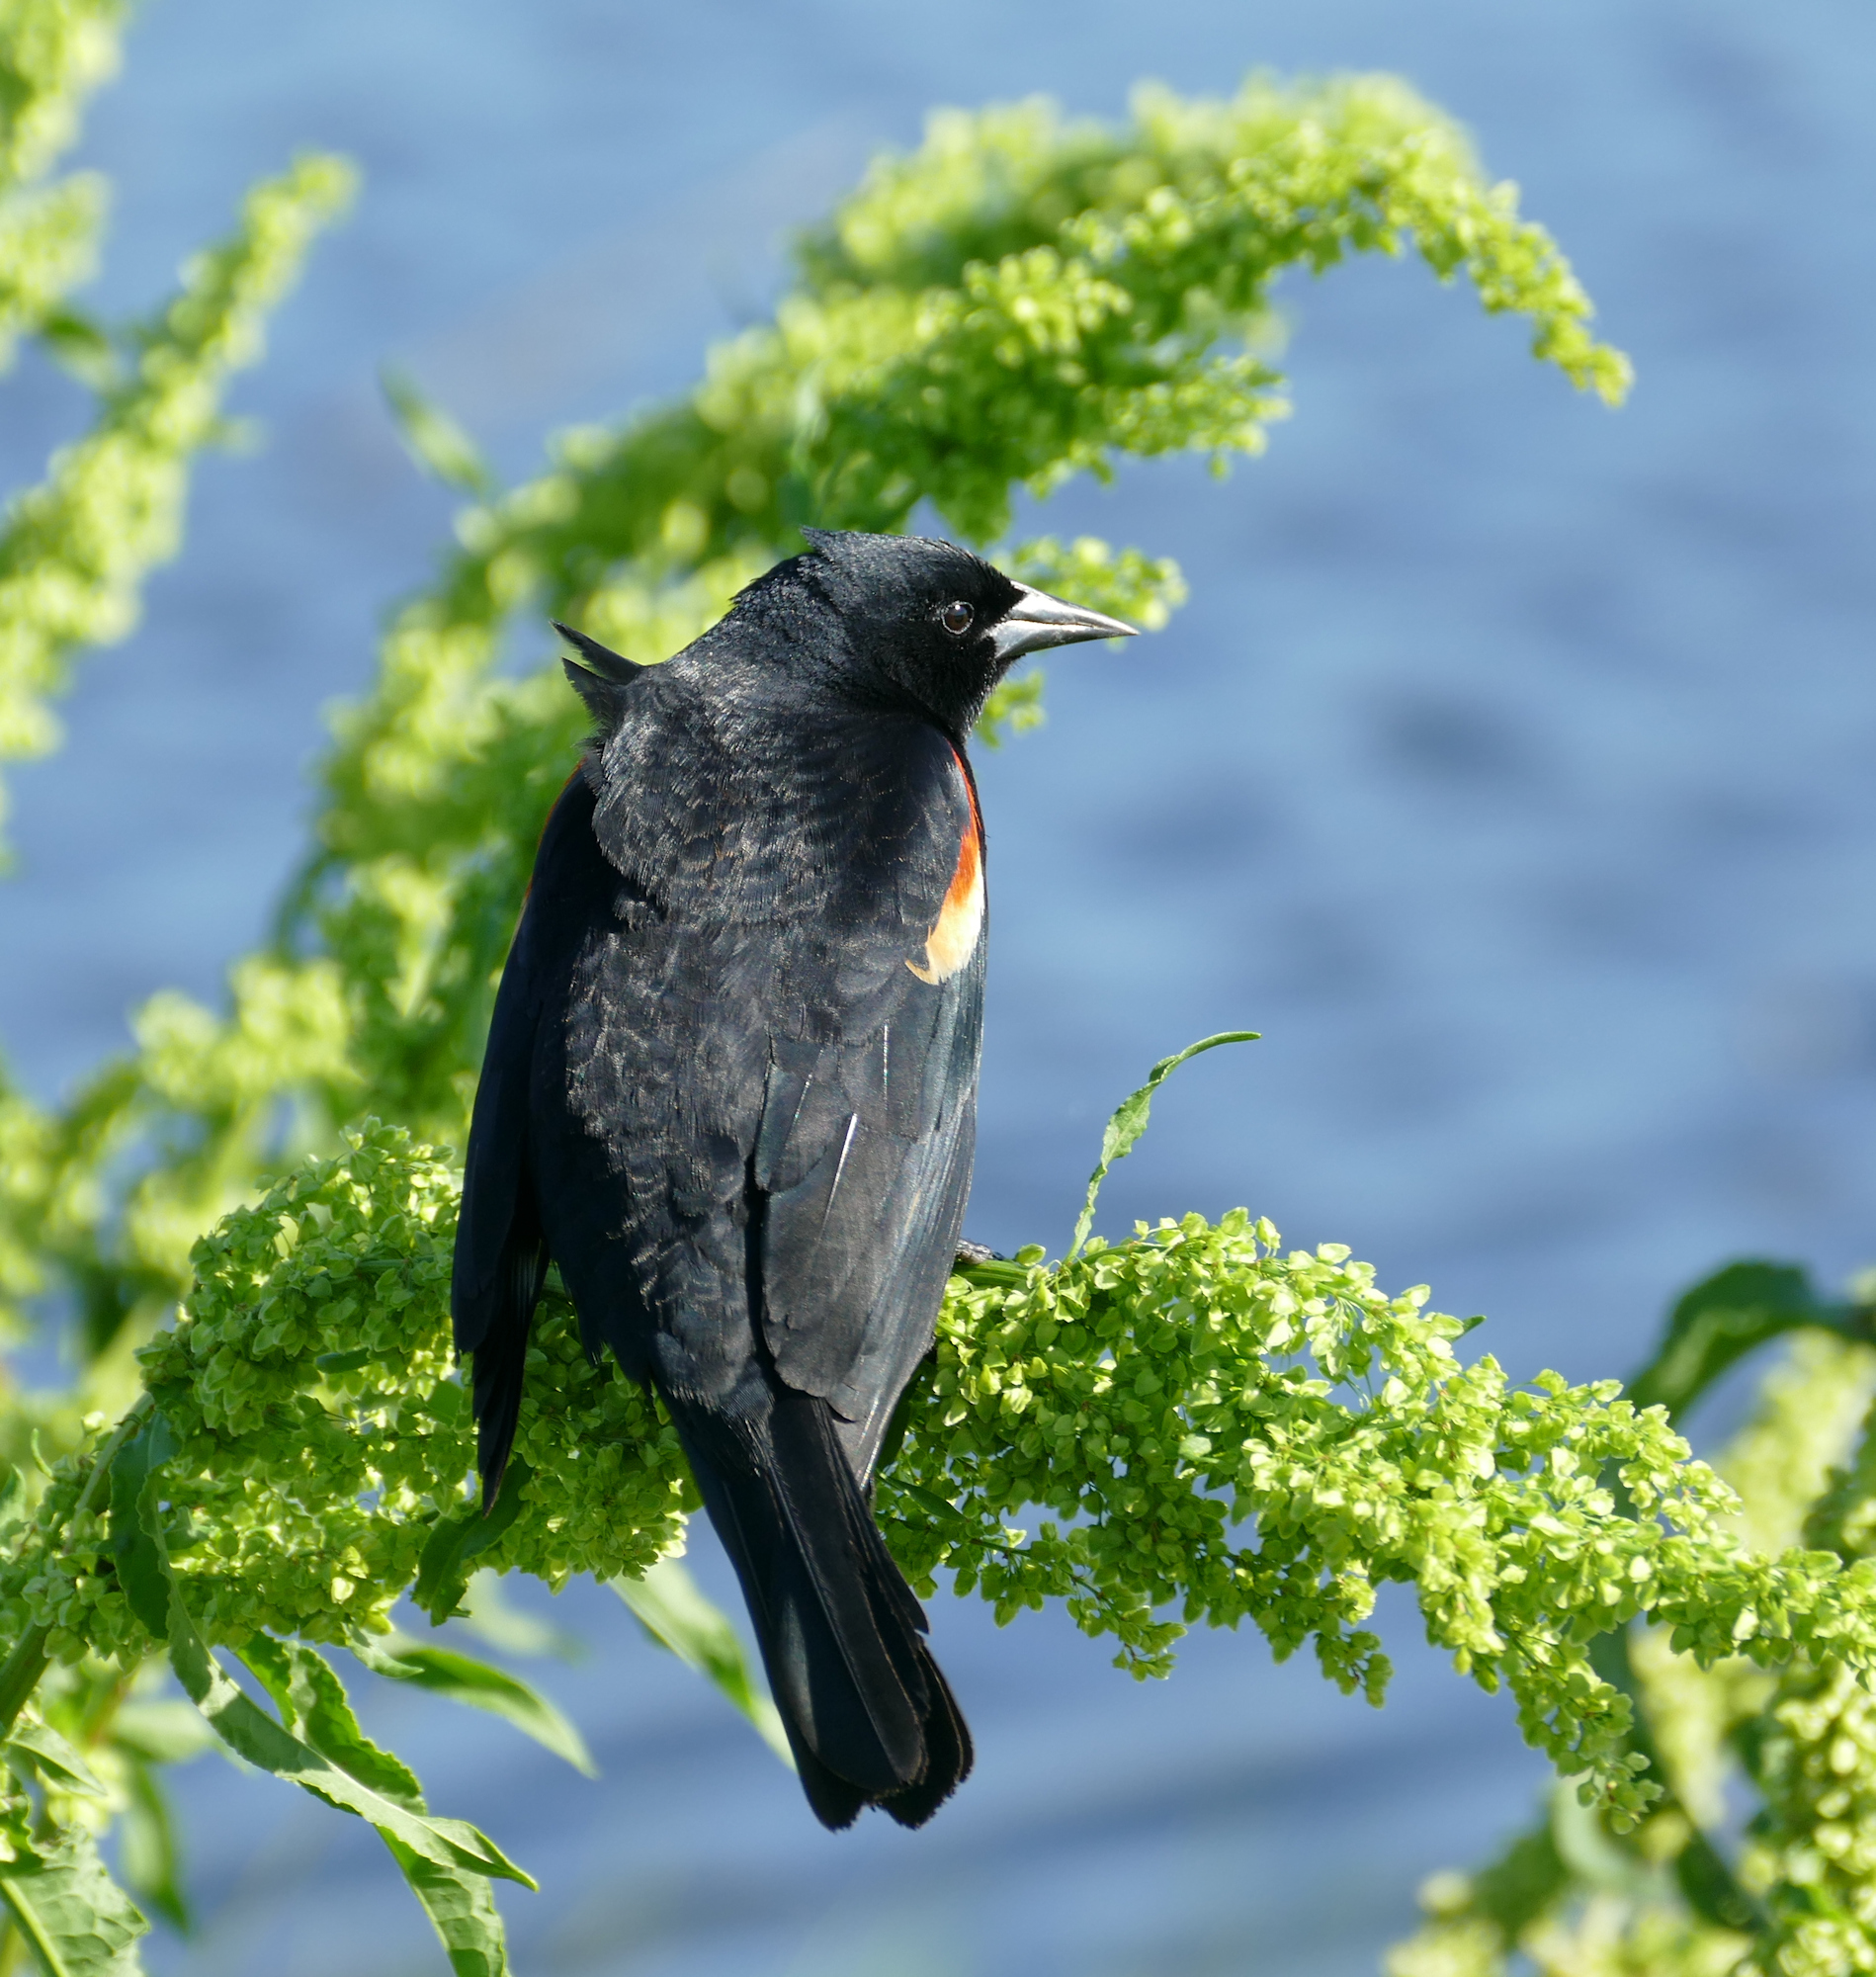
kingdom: Animalia
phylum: Chordata
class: Aves
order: Passeriformes
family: Icteridae
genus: Agelaius
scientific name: Agelaius phoeniceus
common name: Red-winged blackbird
